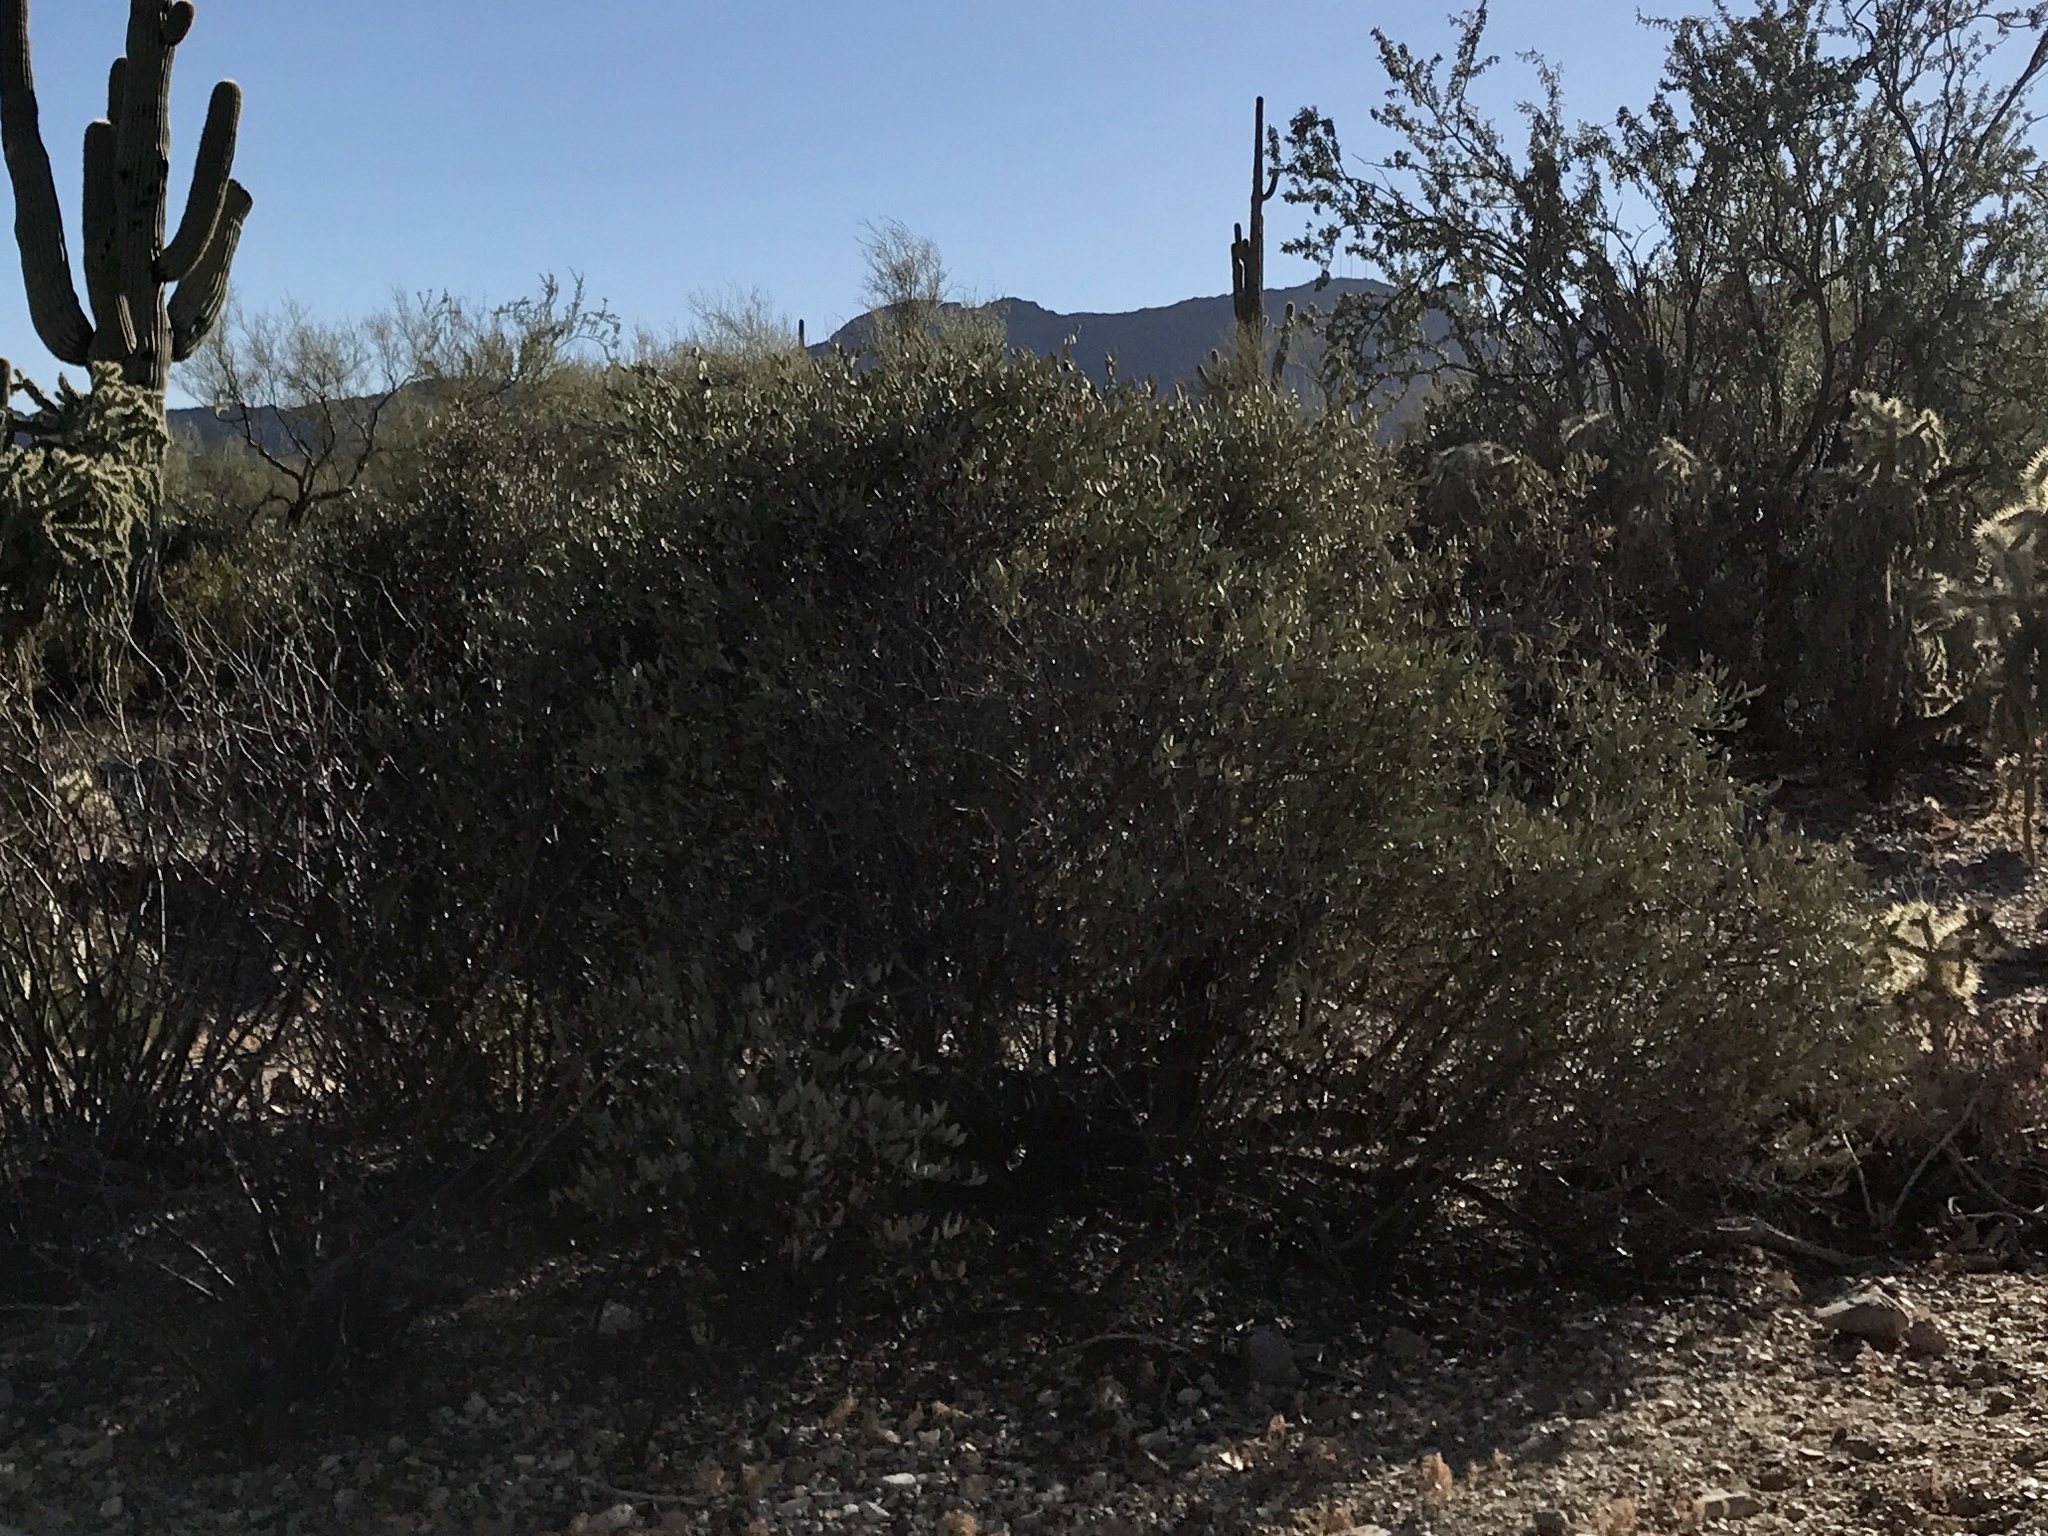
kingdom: Plantae
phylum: Tracheophyta
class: Magnoliopsida
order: Caryophyllales
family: Simmondsiaceae
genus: Simmondsia
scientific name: Simmondsia chinensis
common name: Jojoba
